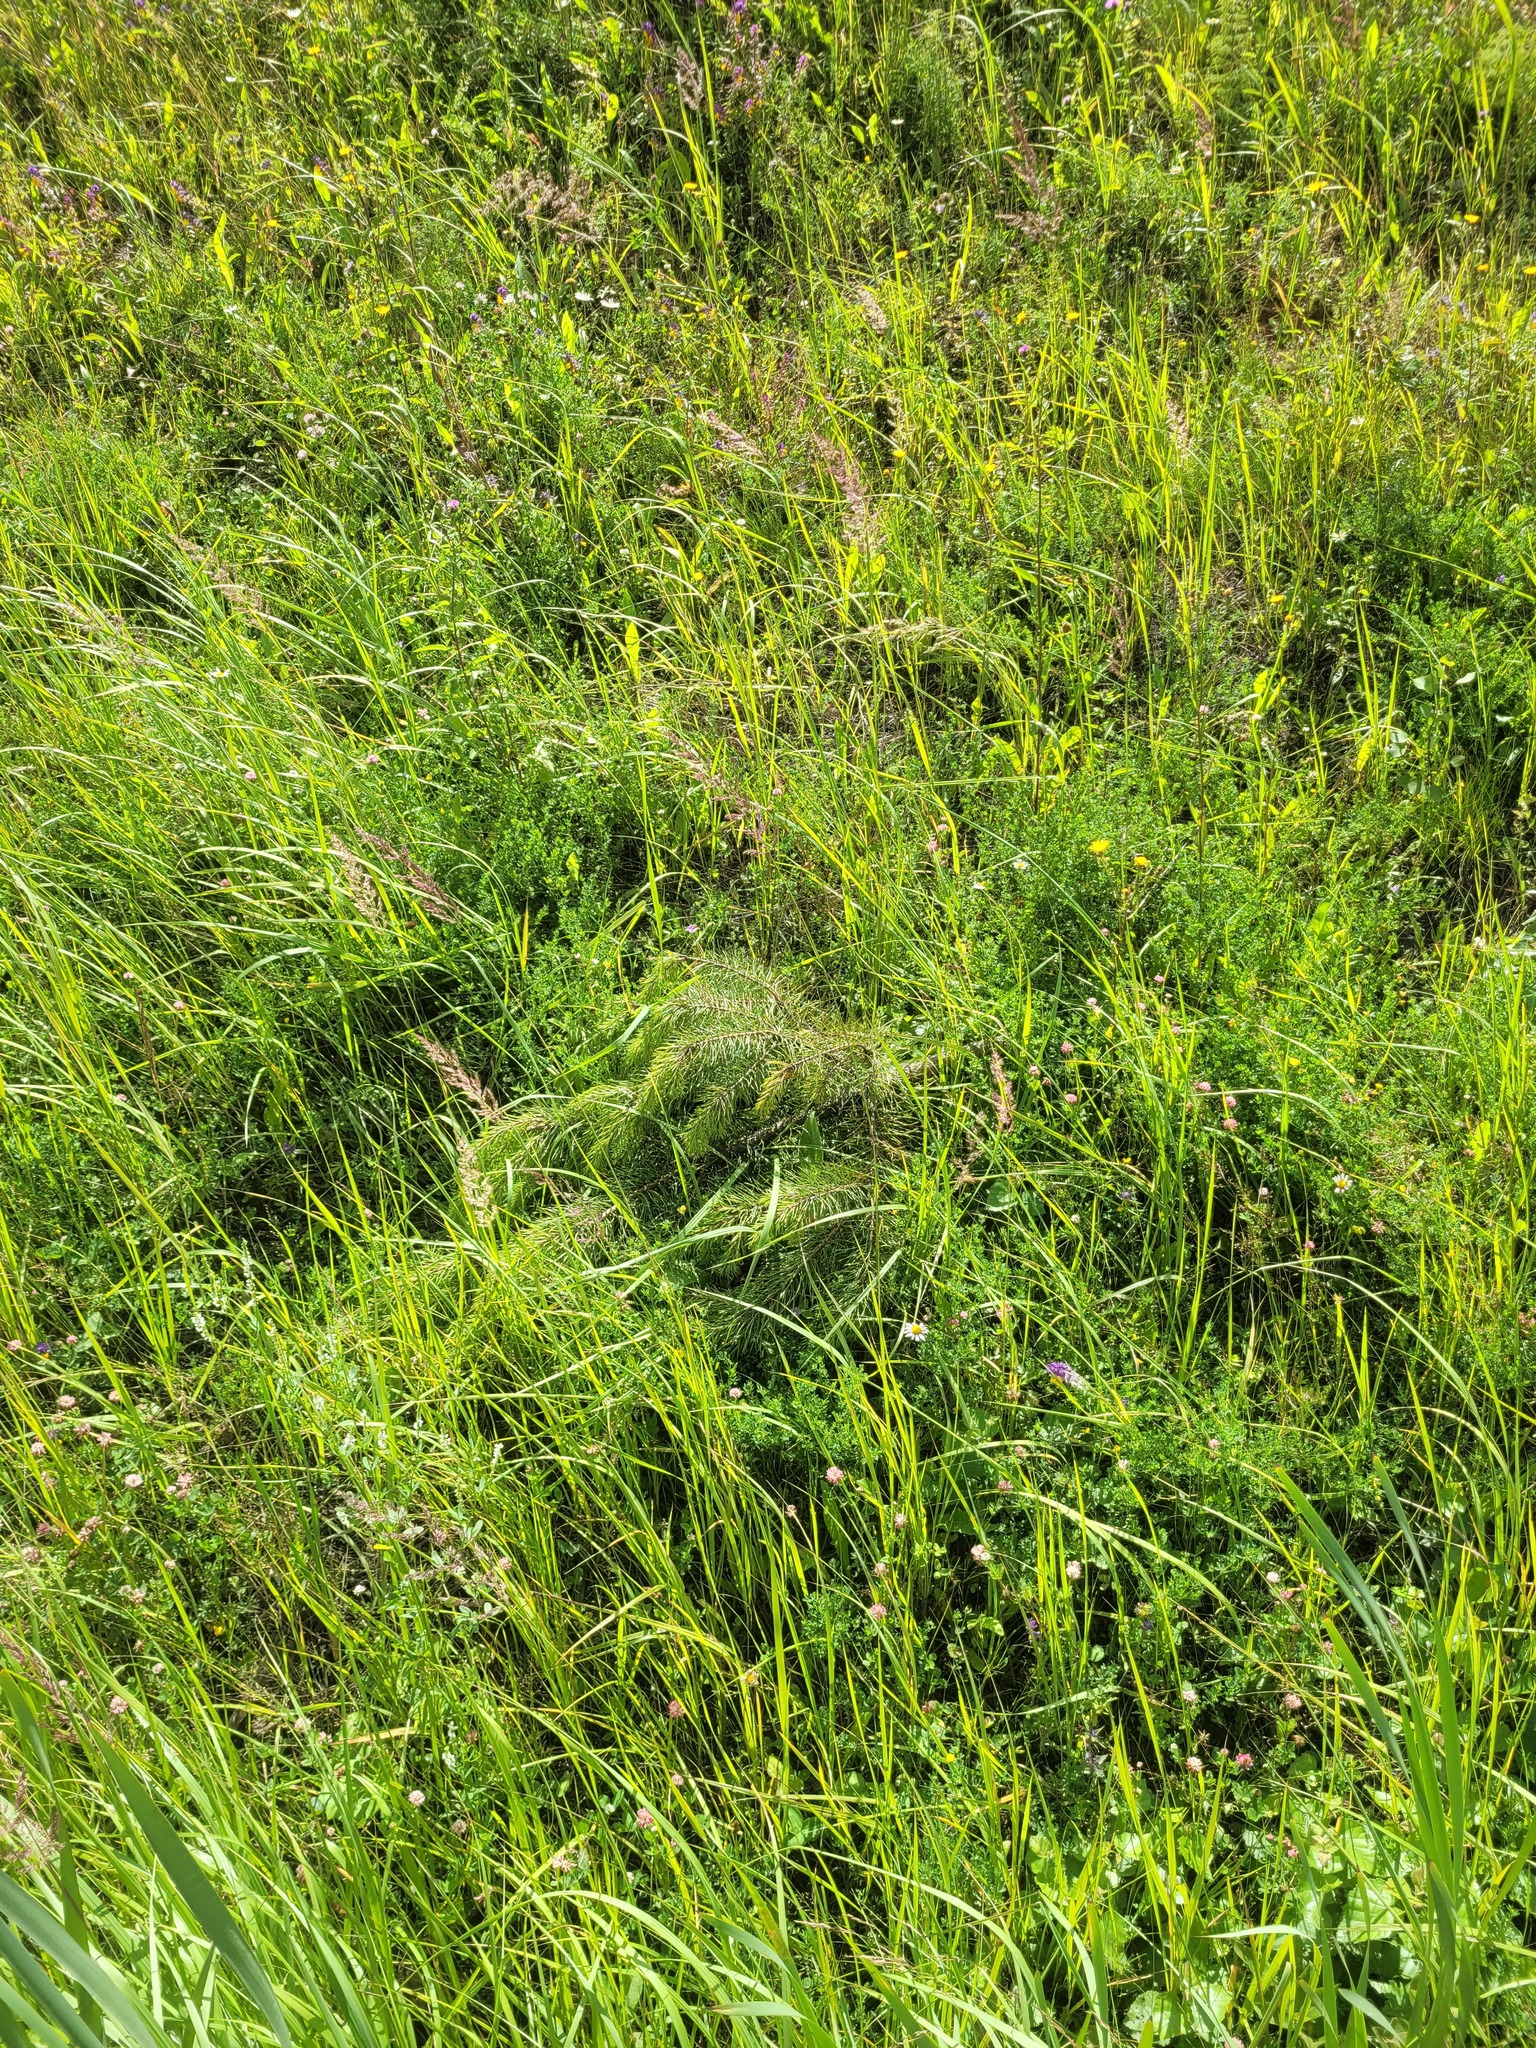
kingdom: Plantae
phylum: Tracheophyta
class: Pinopsida
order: Pinales
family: Pinaceae
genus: Picea
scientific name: Picea abies
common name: Norway spruce
